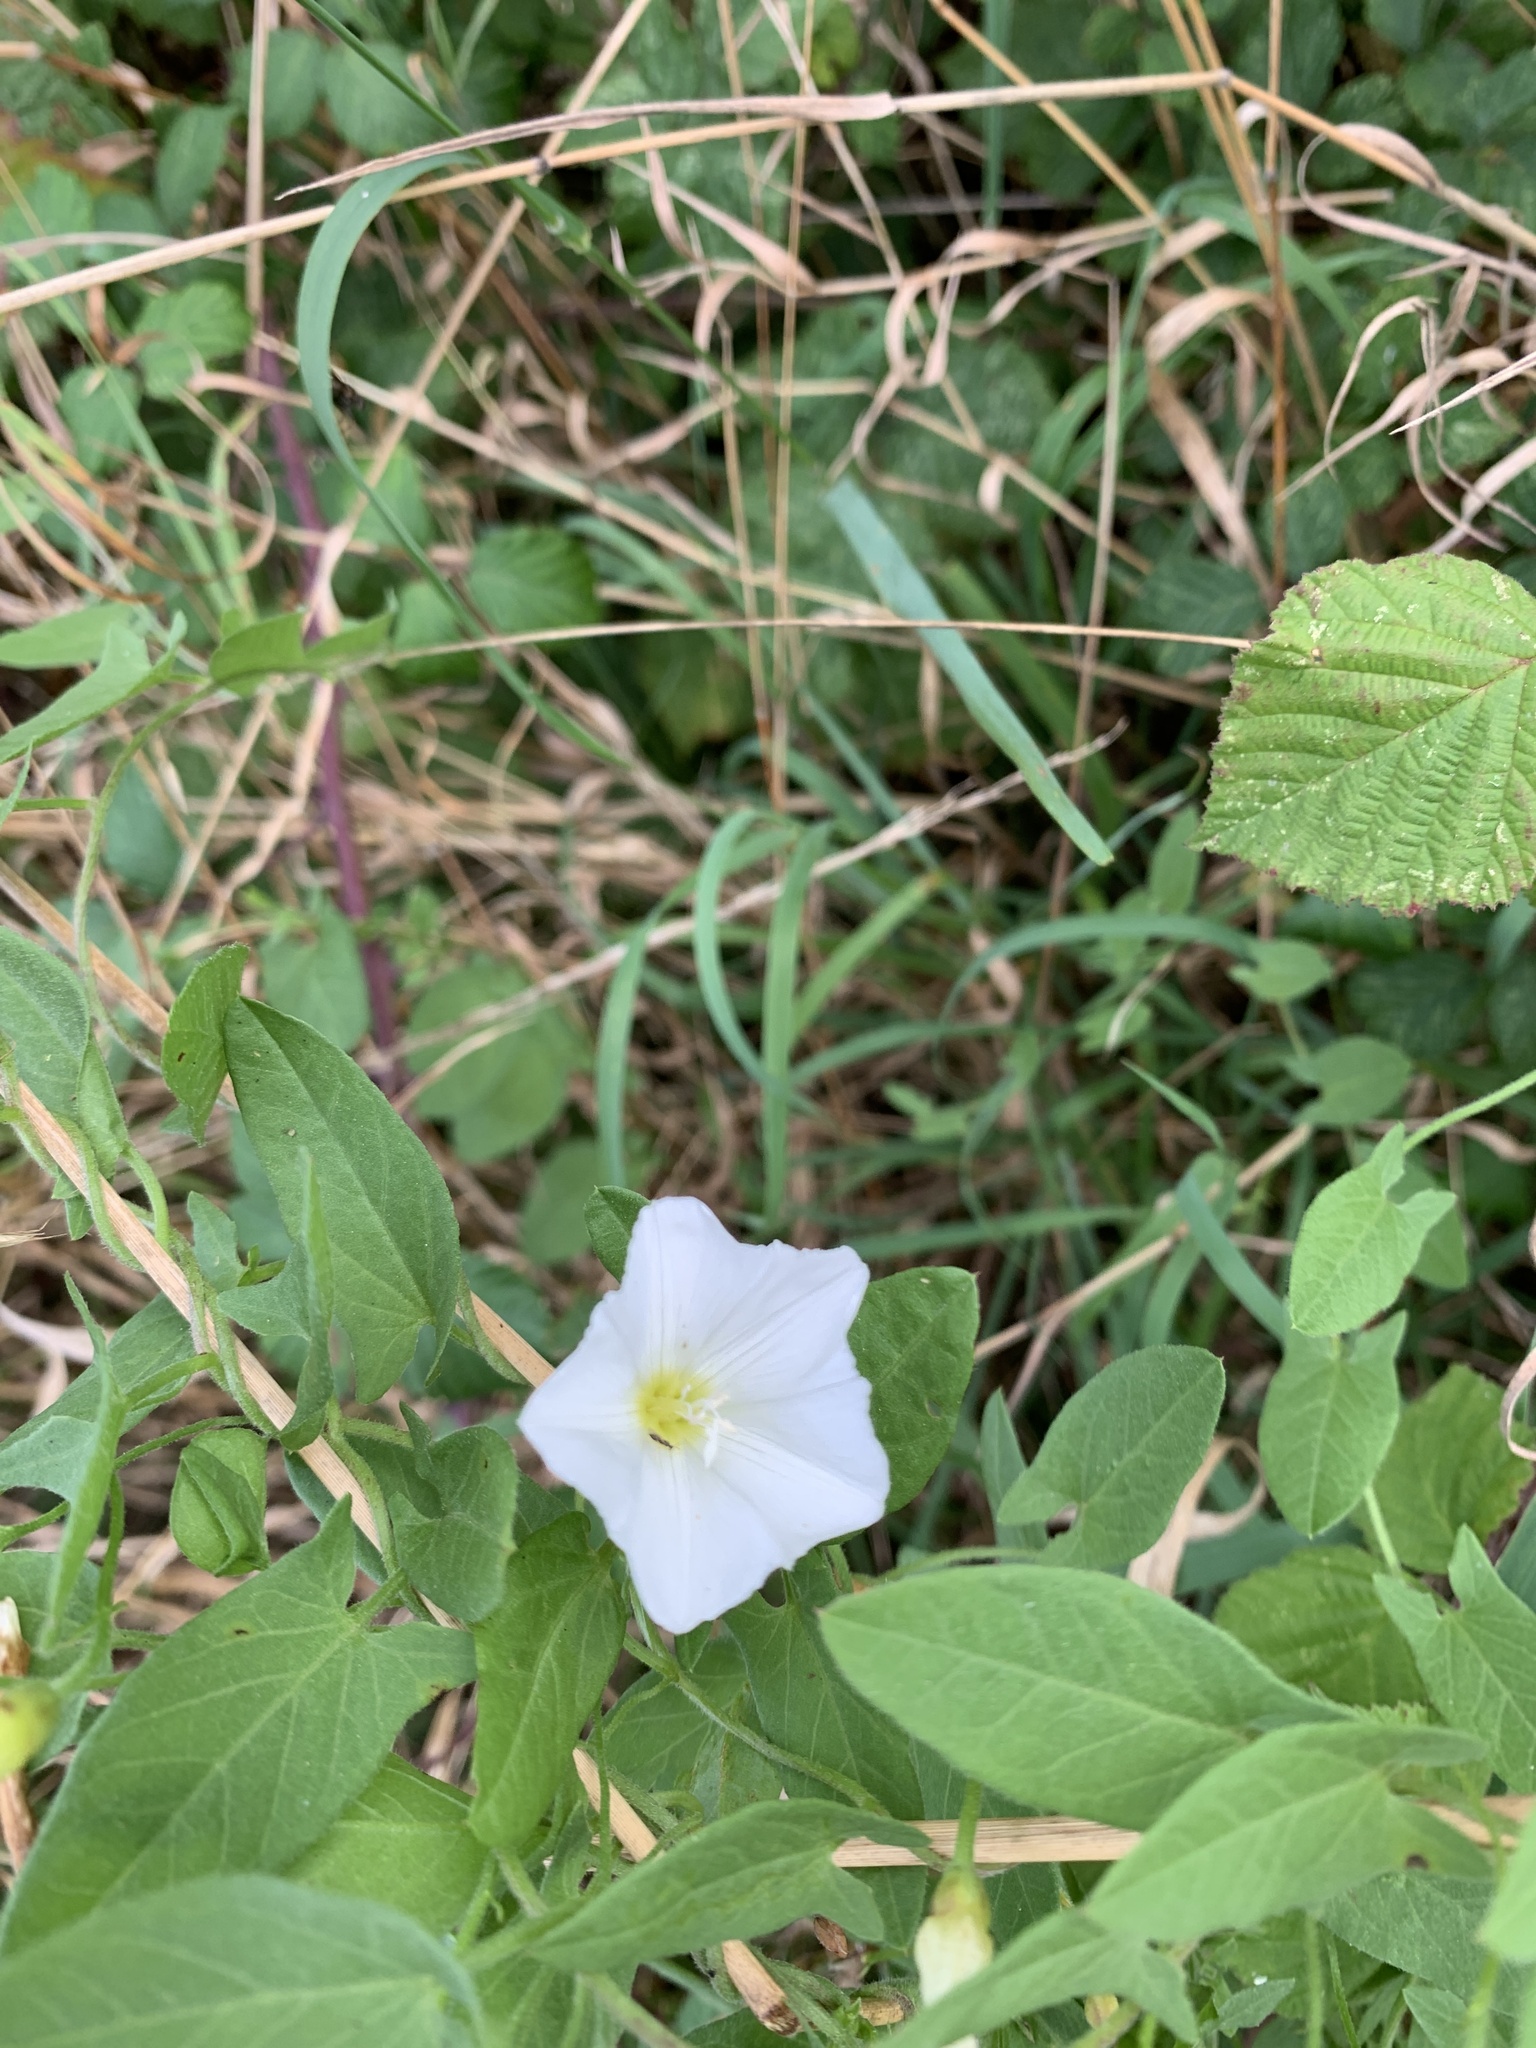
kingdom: Plantae
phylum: Tracheophyta
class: Magnoliopsida
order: Solanales
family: Convolvulaceae
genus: Convolvulus
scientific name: Convolvulus arvensis
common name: Field bindweed
